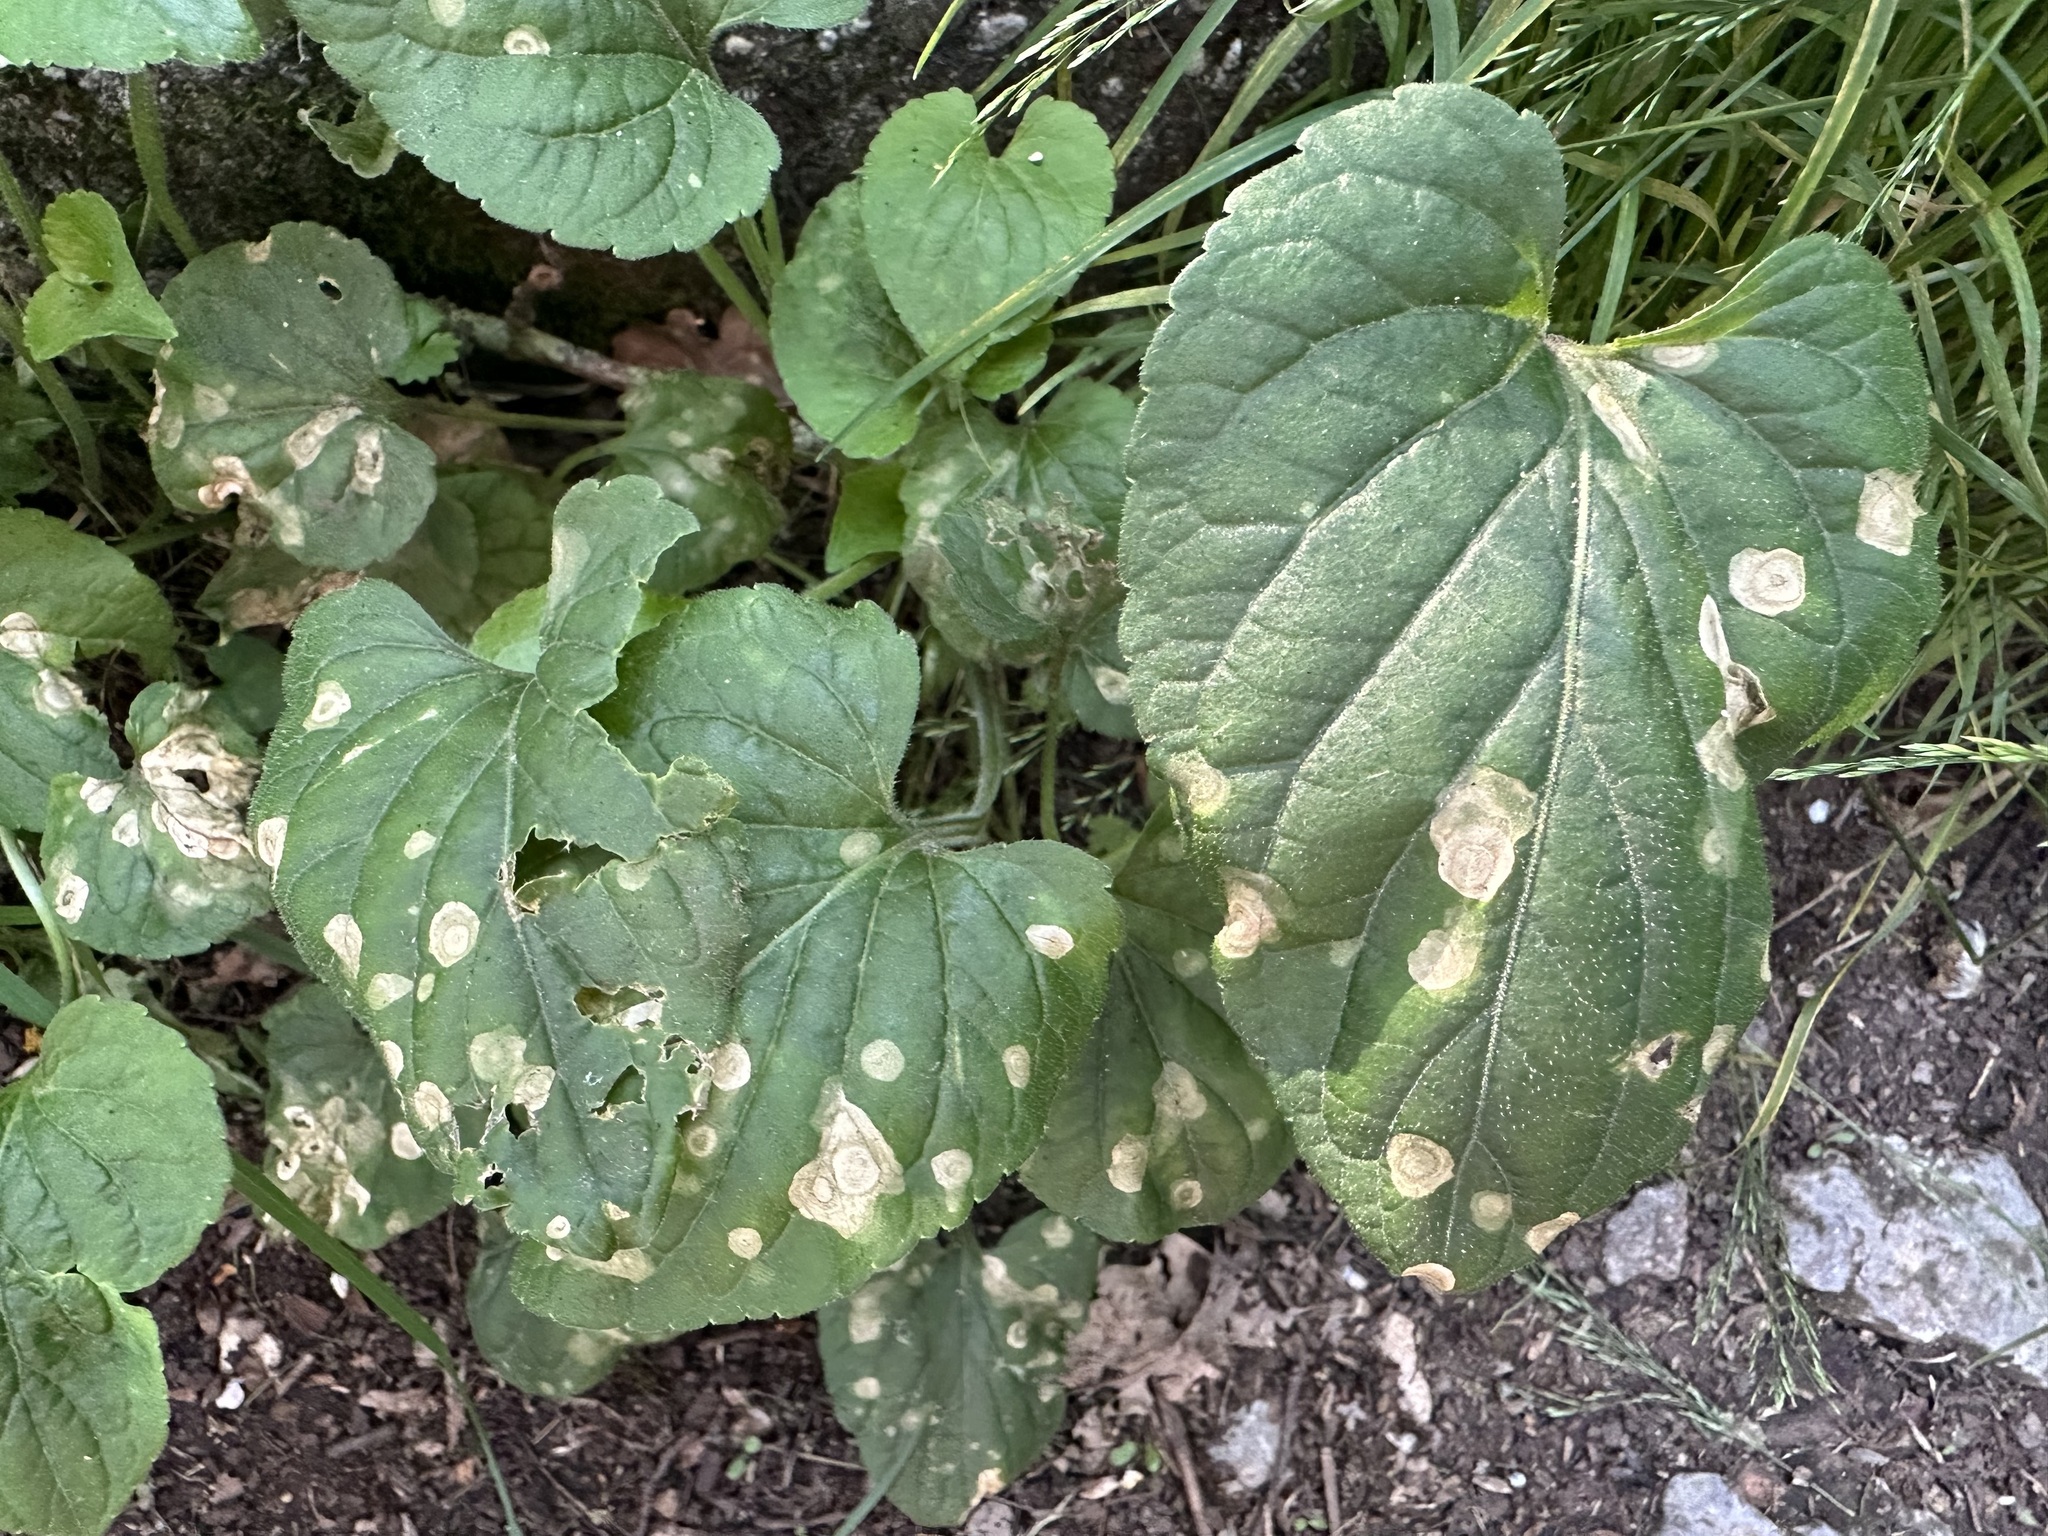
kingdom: Fungi
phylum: Ascomycota
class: Dothideomycetes
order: Mycosphaerellales
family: Mycosphaerellaceae
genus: Ramularia
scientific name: Ramularia lactea
